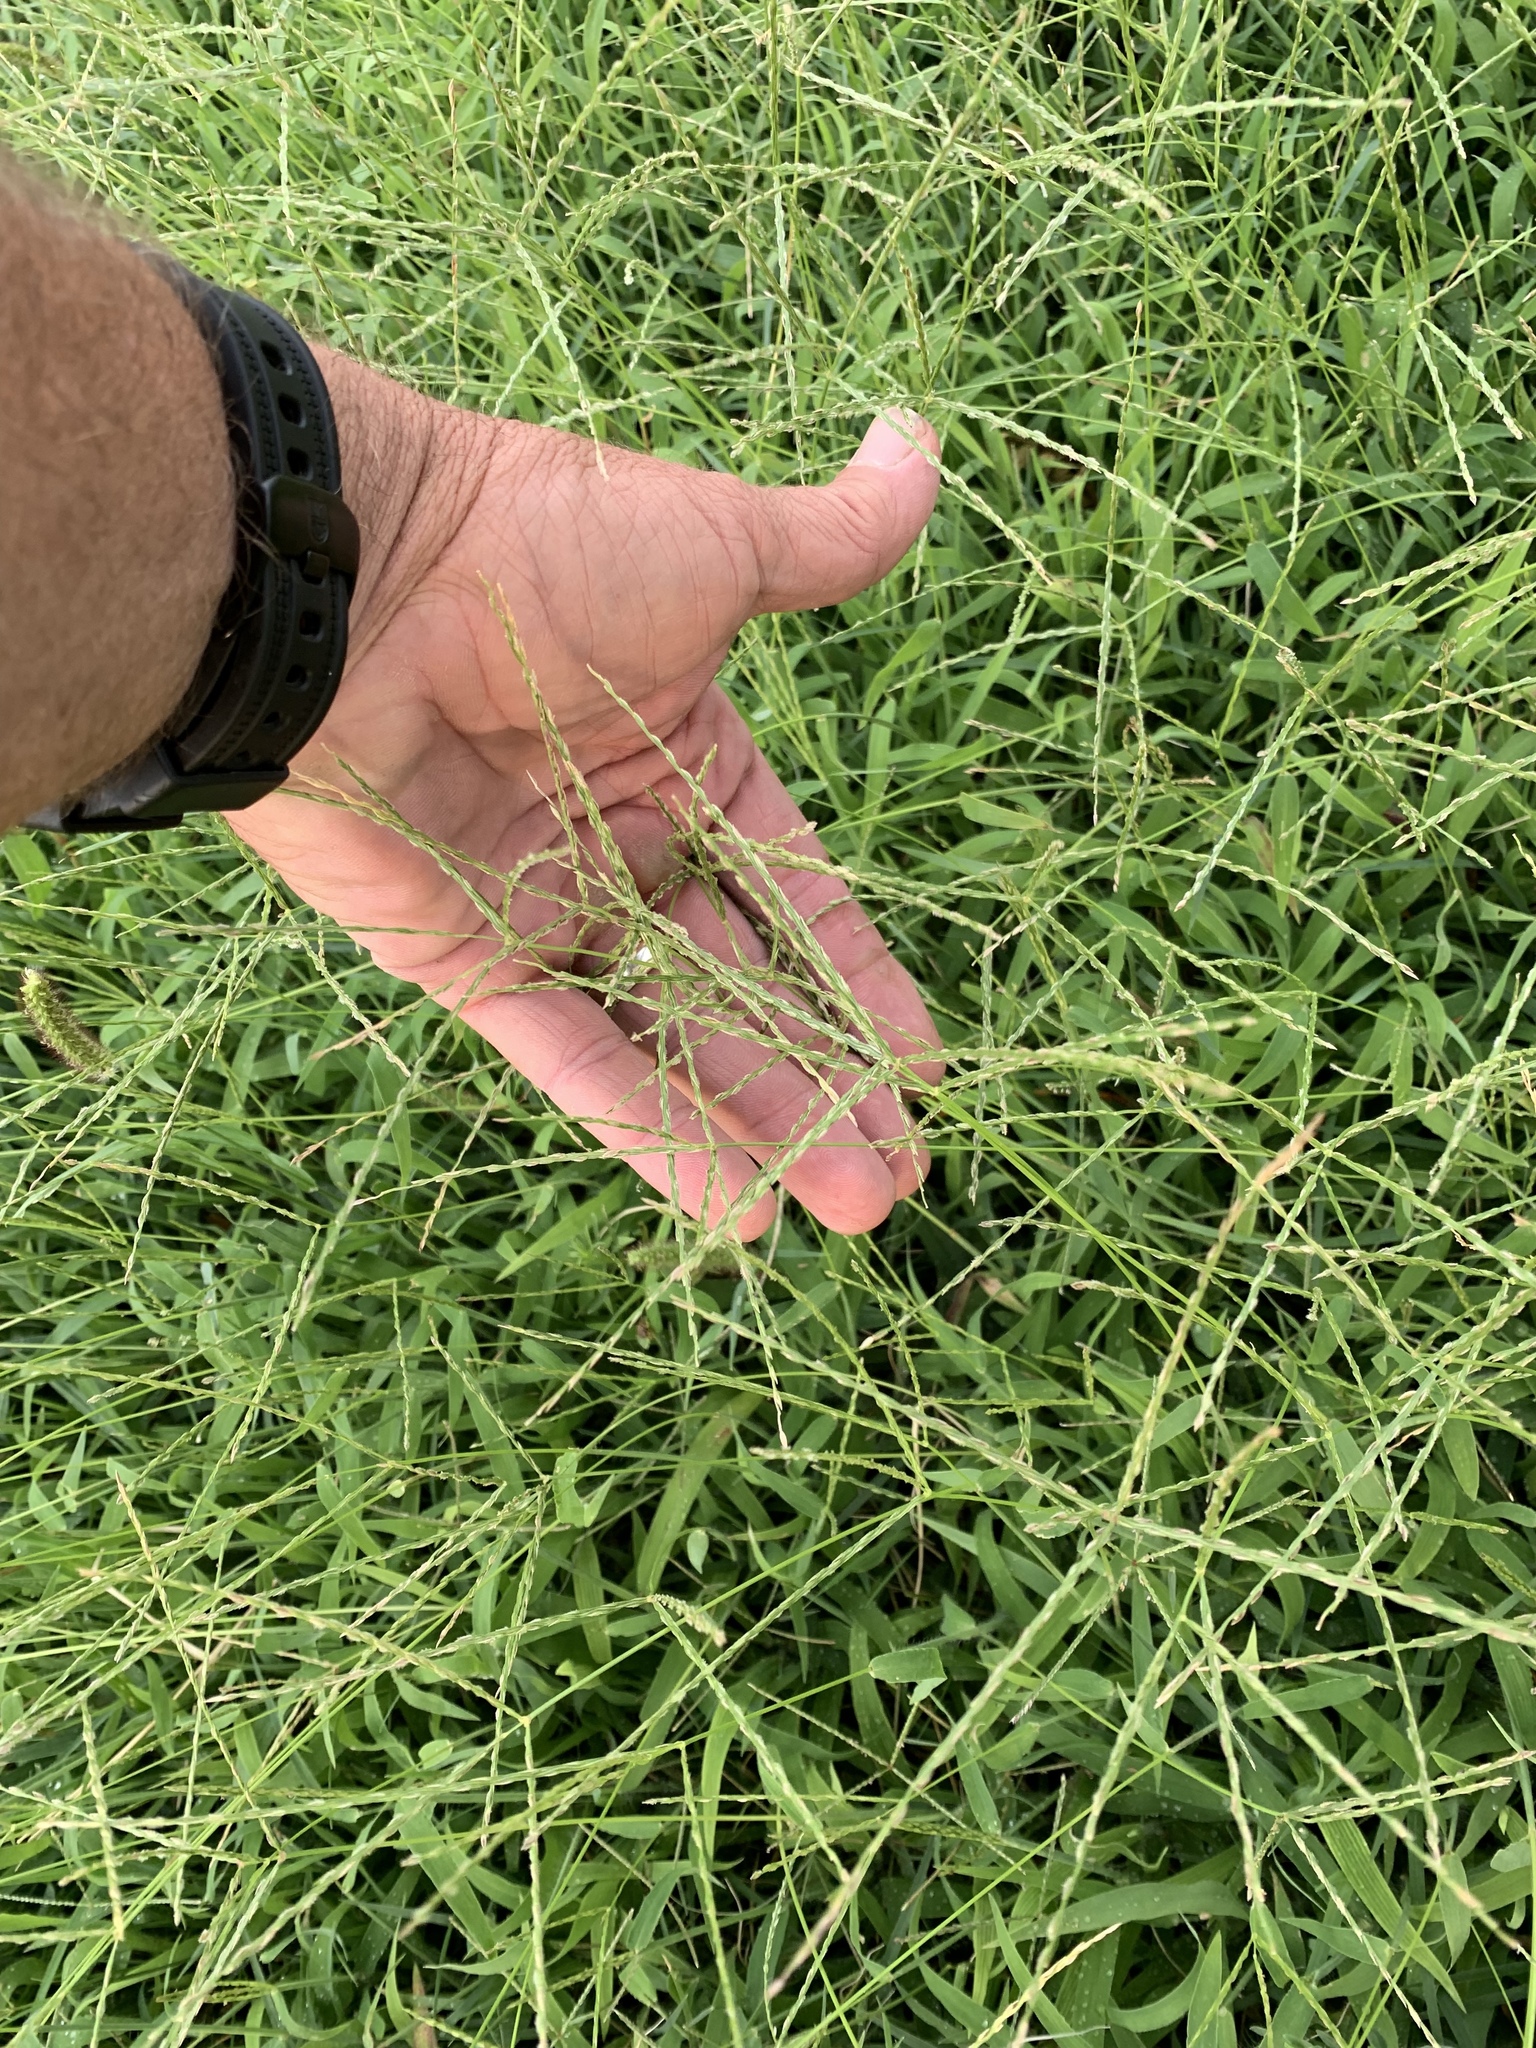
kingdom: Plantae
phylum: Tracheophyta
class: Liliopsida
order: Poales
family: Poaceae
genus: Digitaria
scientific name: Digitaria
